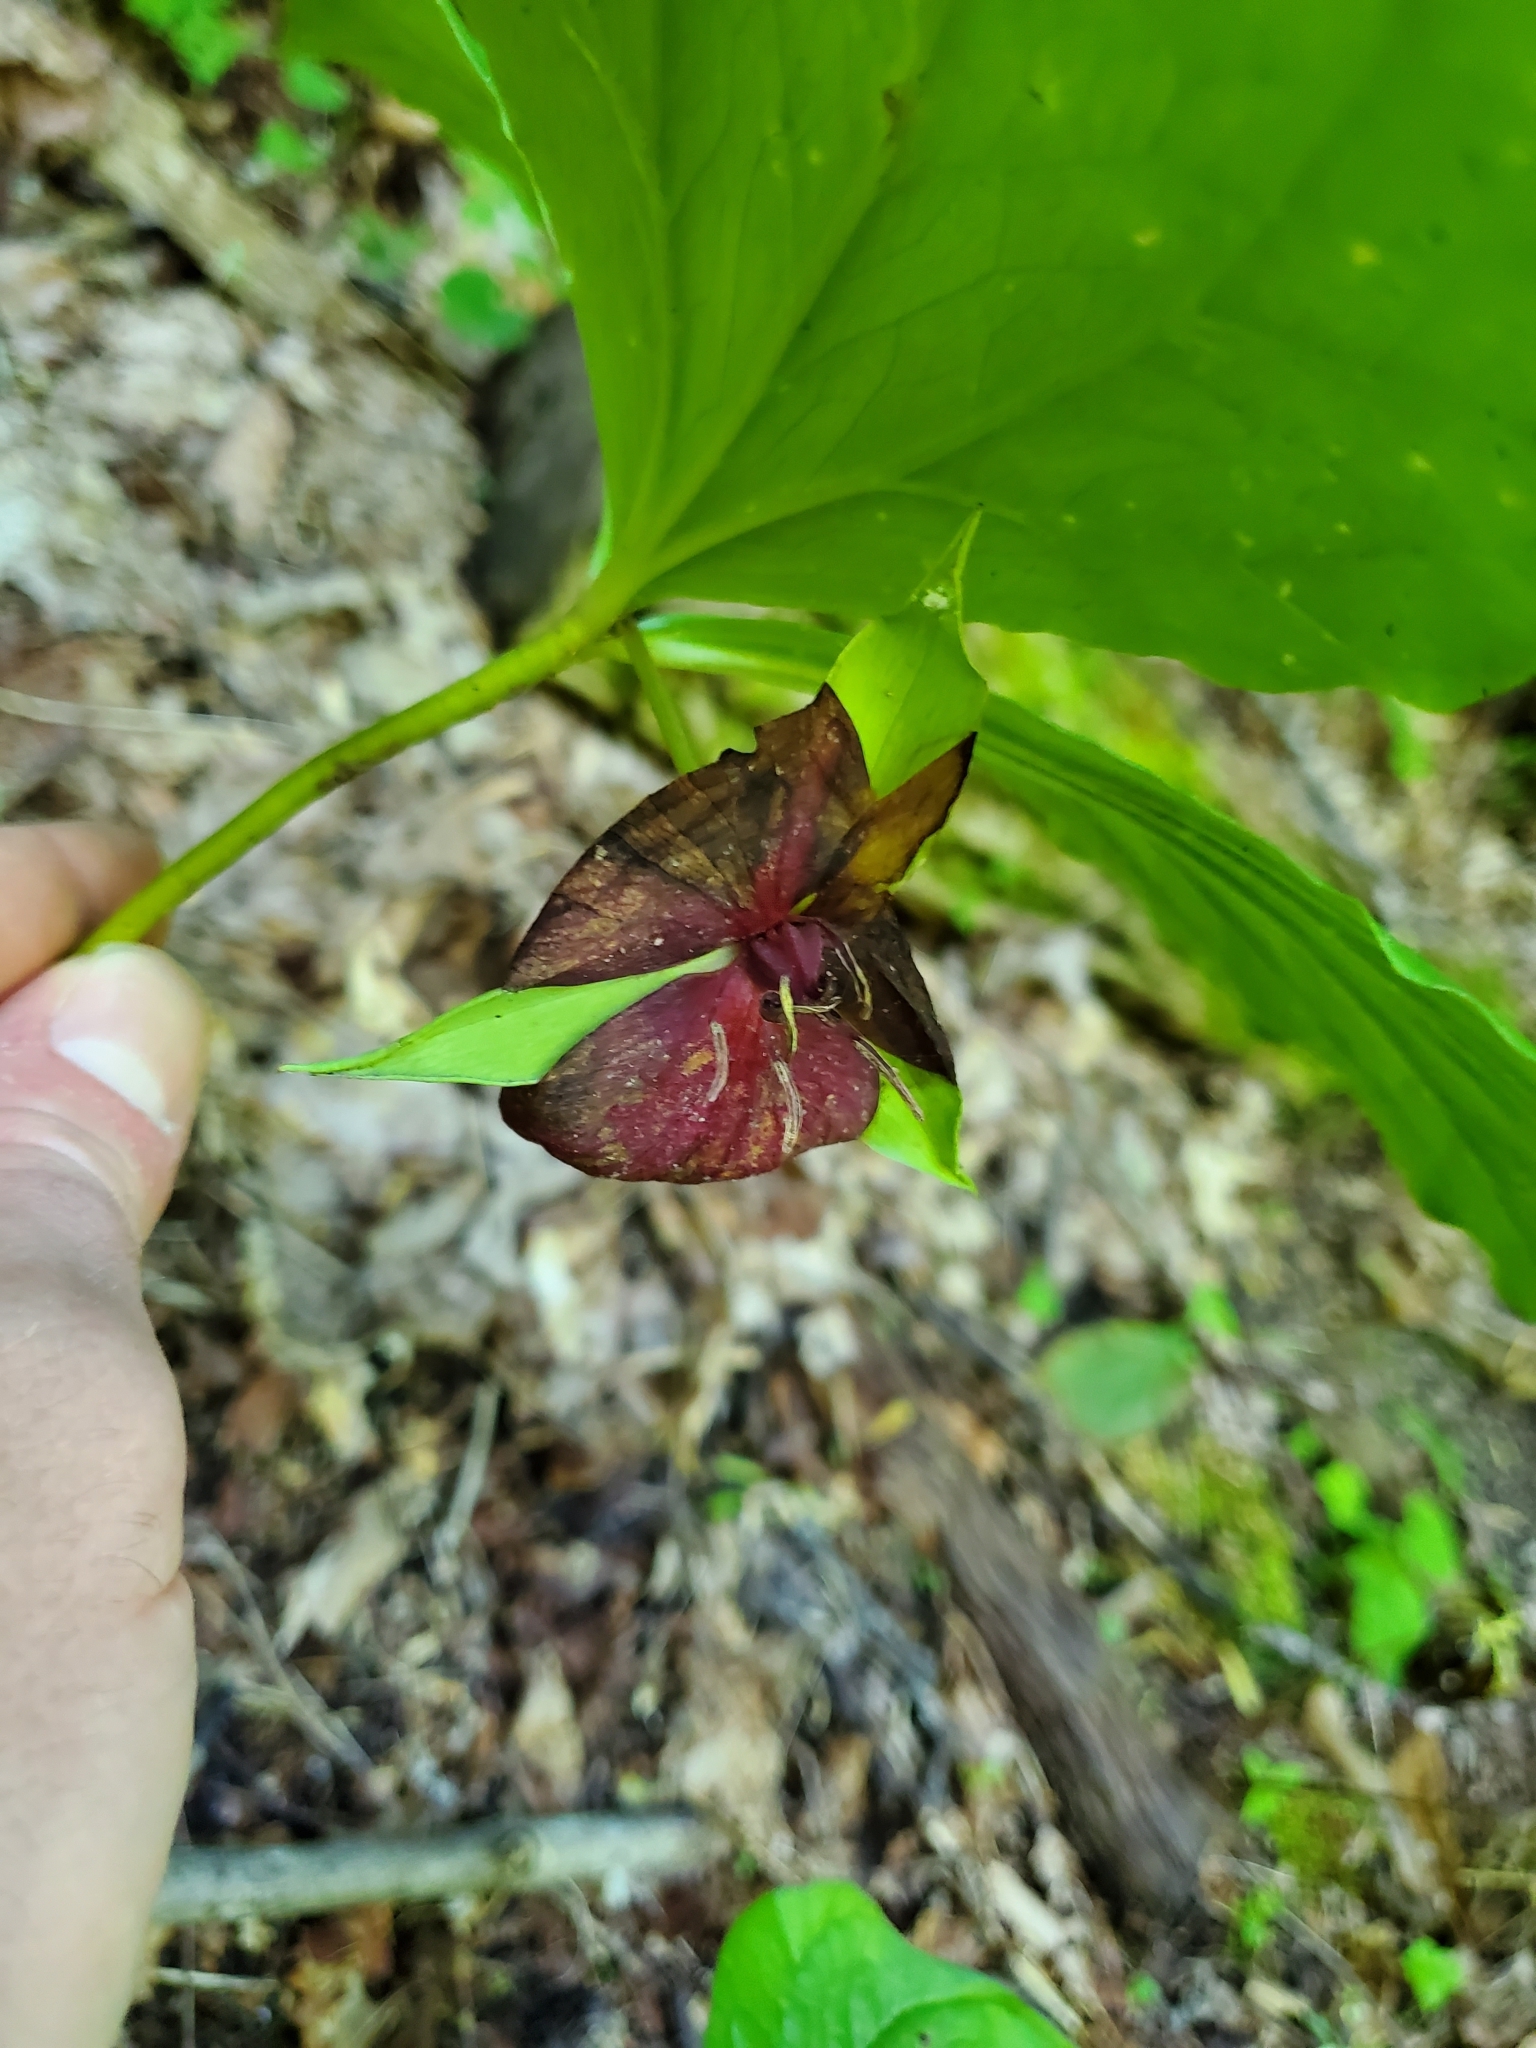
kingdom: Plantae
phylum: Tracheophyta
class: Liliopsida
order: Liliales
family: Melanthiaceae
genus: Trillium
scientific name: Trillium vaseyi
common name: Sweet trillium
